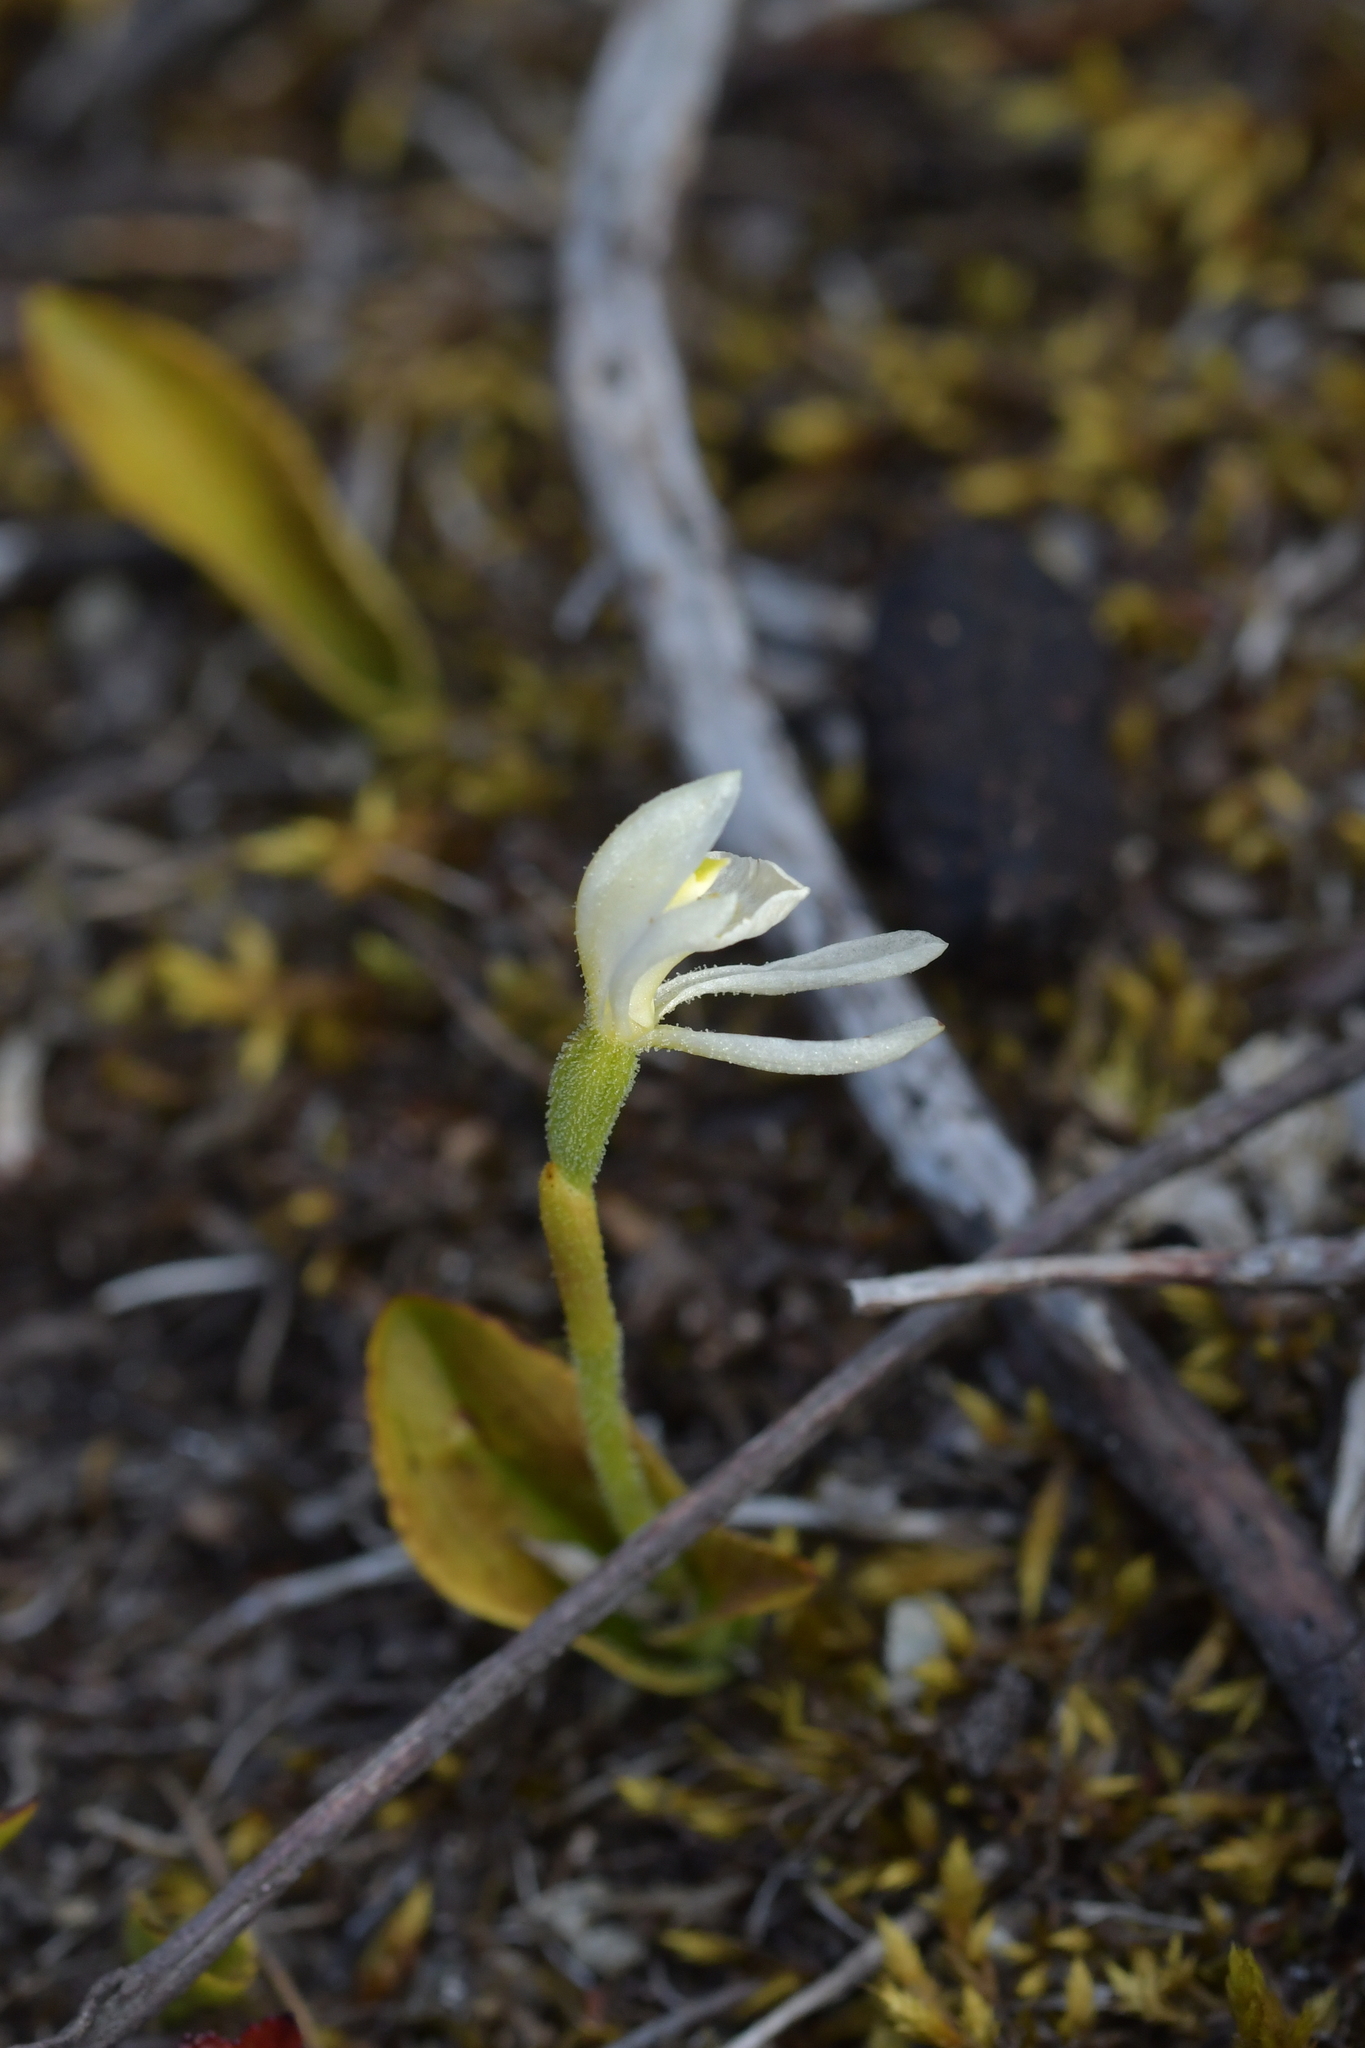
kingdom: Plantae
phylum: Tracheophyta
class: Liliopsida
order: Asparagales
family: Orchidaceae
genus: Aporostylis
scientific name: Aporostylis bifolia
